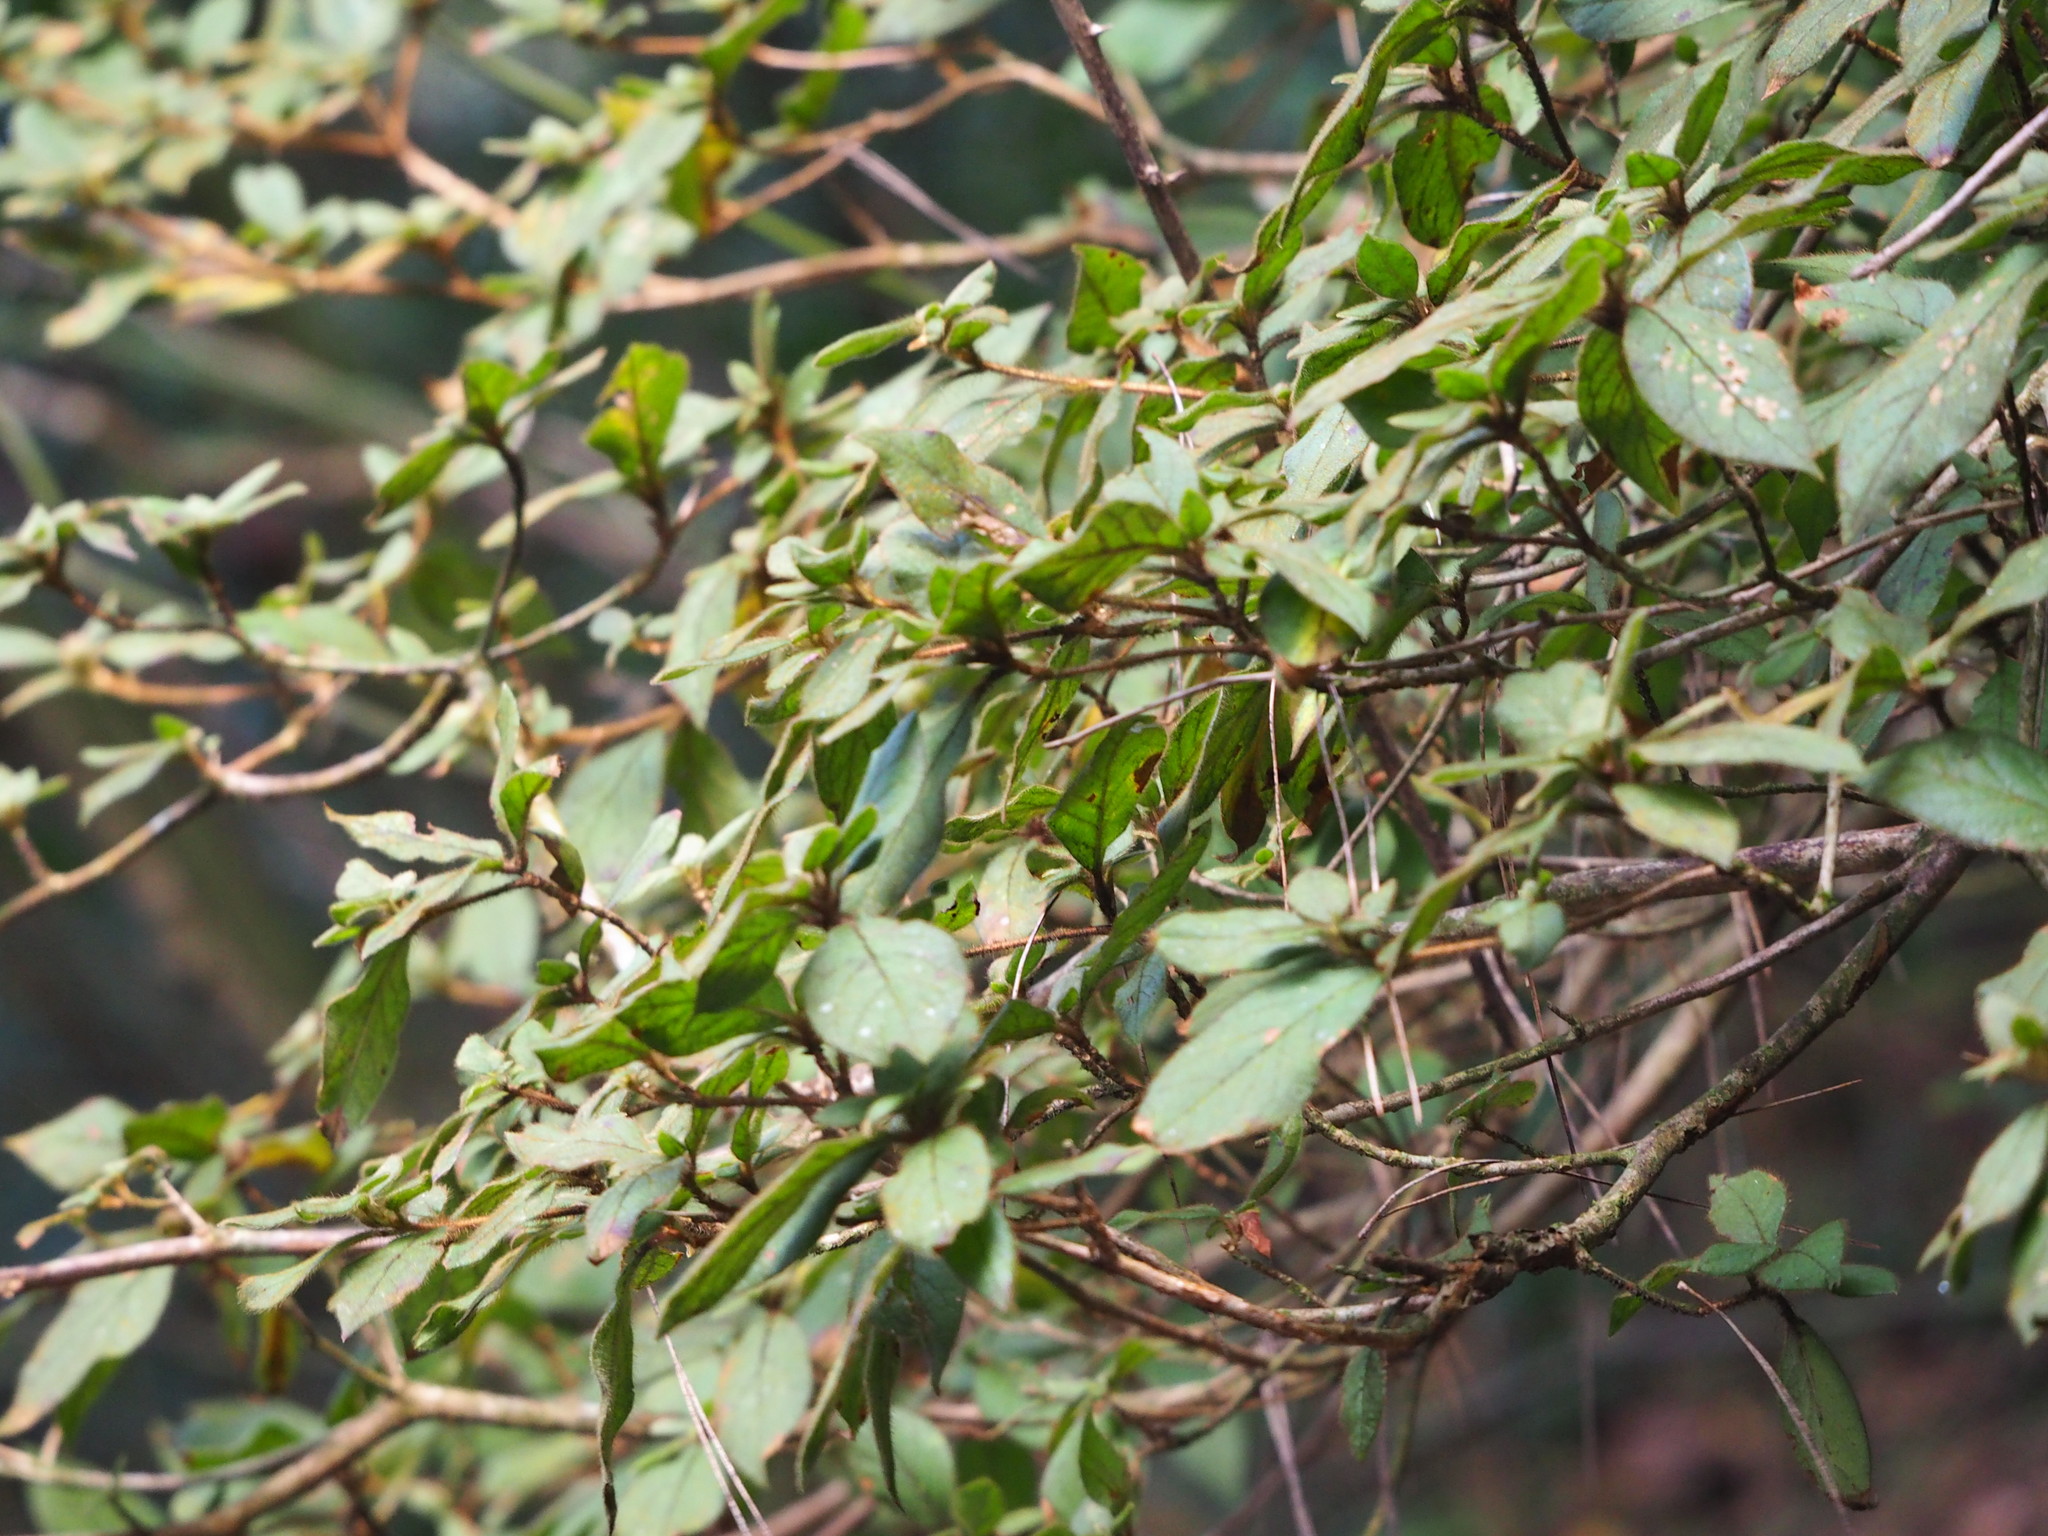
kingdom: Plantae
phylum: Tracheophyta
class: Magnoliopsida
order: Ericales
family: Ericaceae
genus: Rhododendron
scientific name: Rhododendron oldhamii
